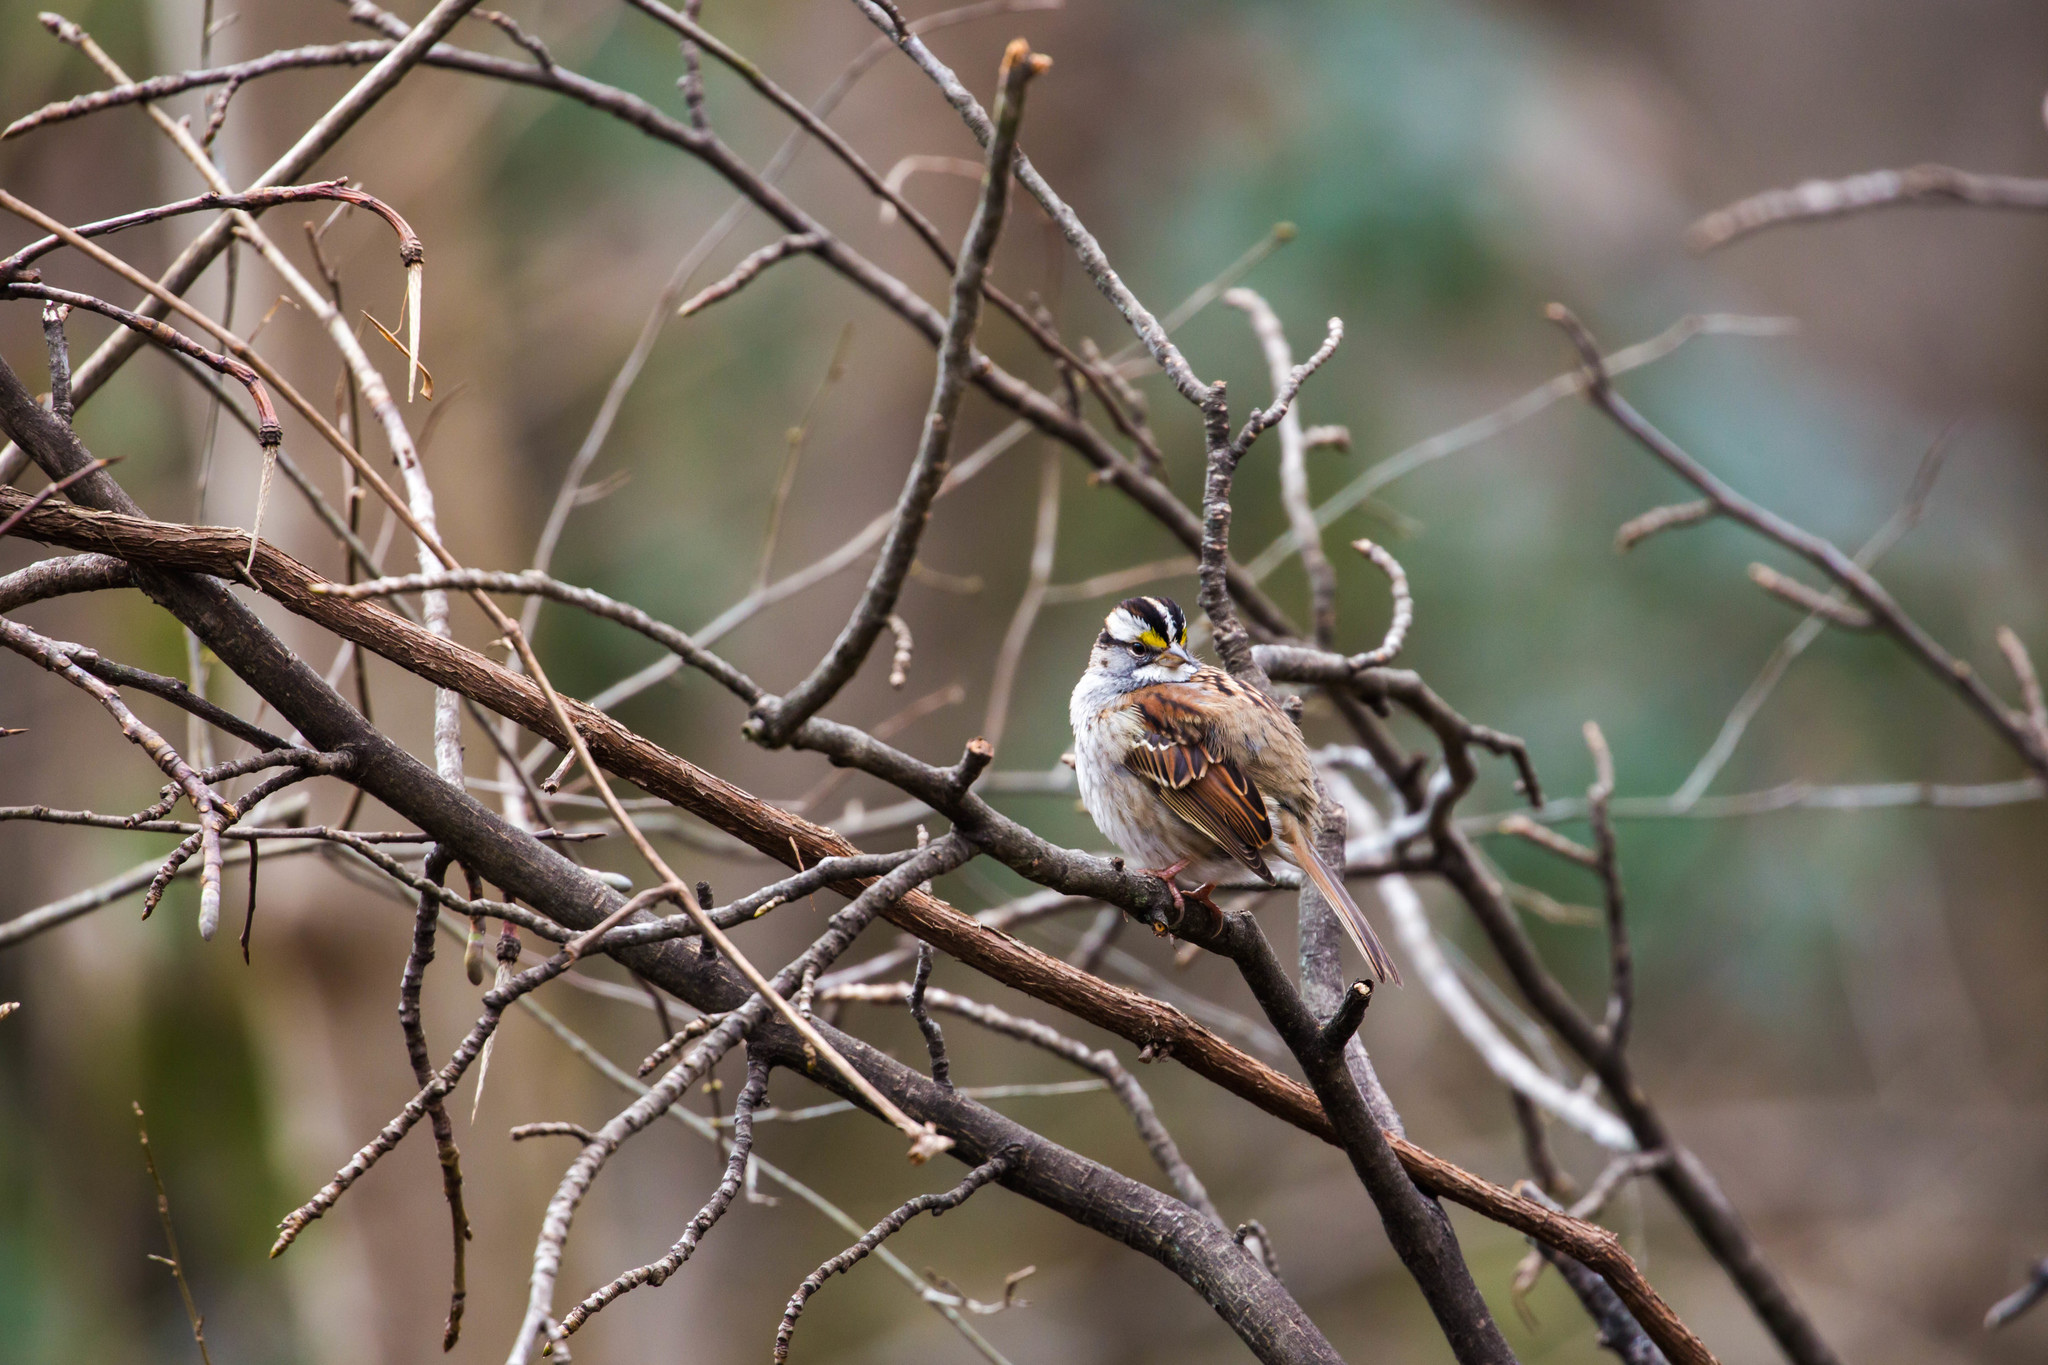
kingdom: Animalia
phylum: Chordata
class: Aves
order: Passeriformes
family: Passerellidae
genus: Zonotrichia
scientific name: Zonotrichia albicollis
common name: White-throated sparrow
